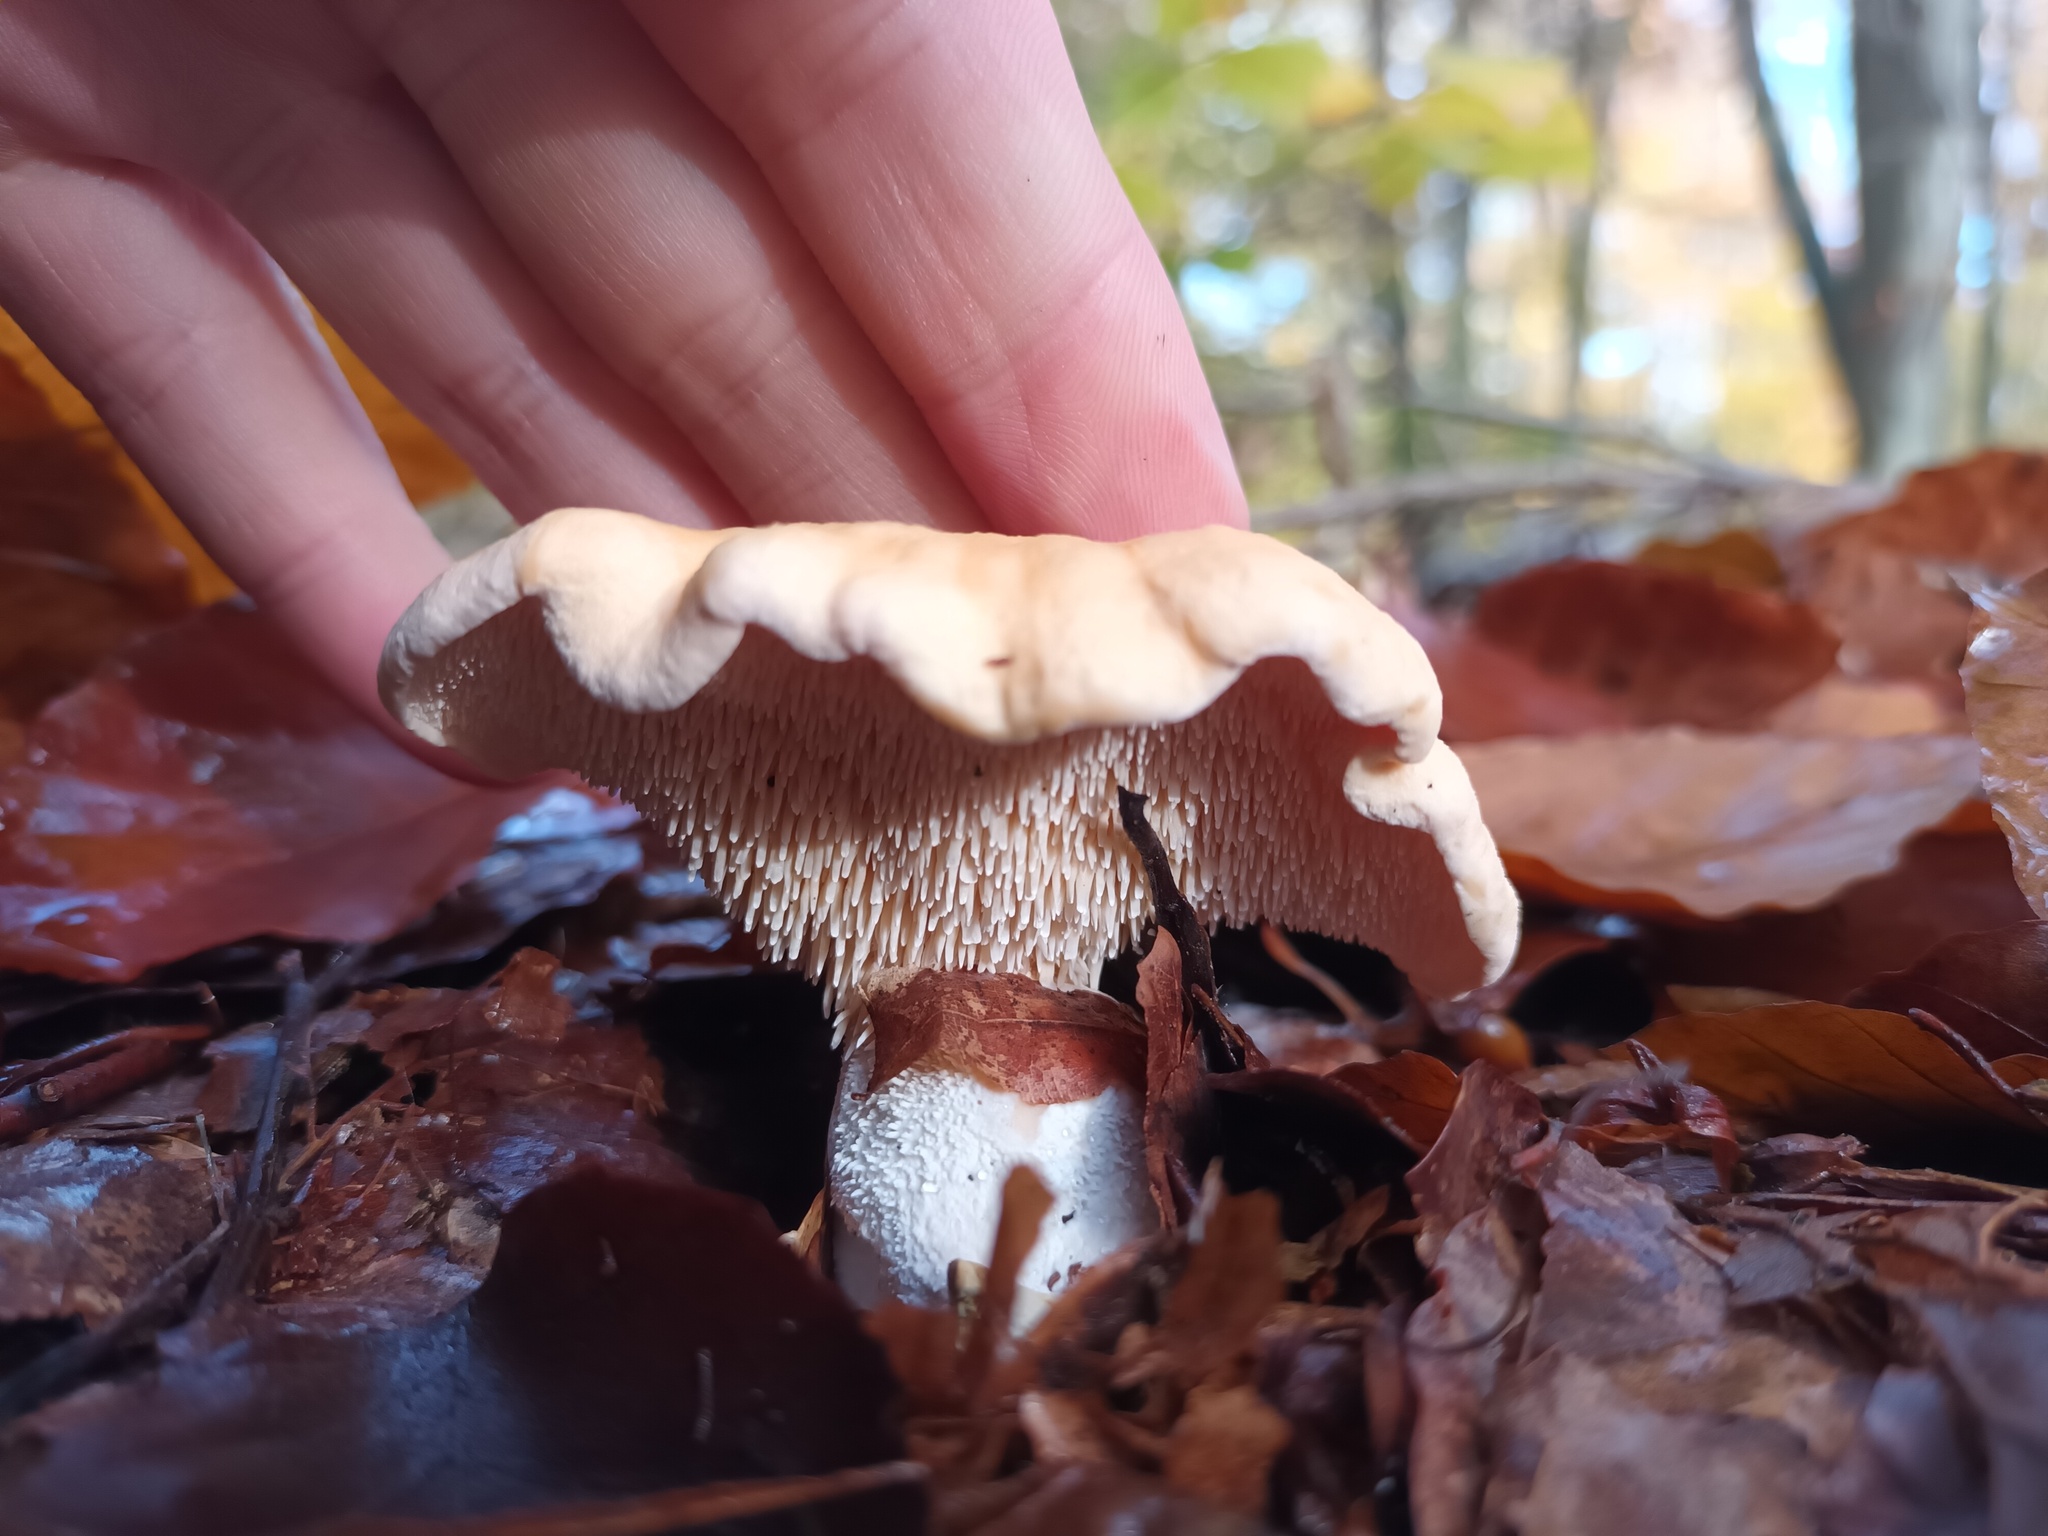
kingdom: Fungi
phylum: Basidiomycota
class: Agaricomycetes
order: Cantharellales
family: Hydnaceae
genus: Hydnum
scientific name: Hydnum repandum
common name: Wood hedgehog
